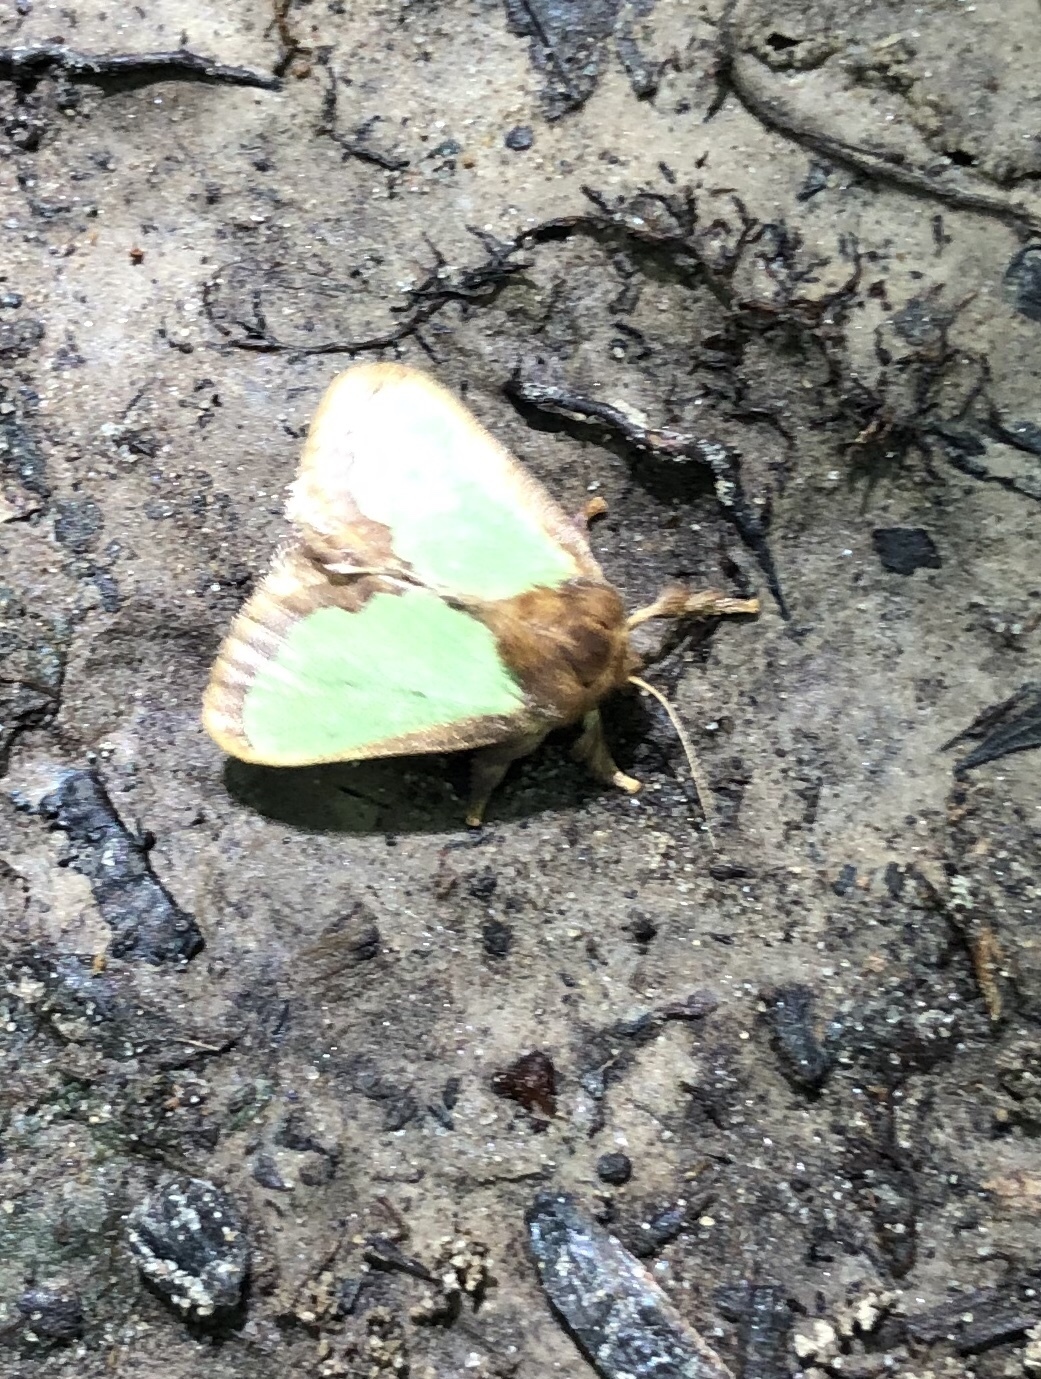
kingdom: Animalia
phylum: Arthropoda
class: Insecta
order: Lepidoptera
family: Limacodidae
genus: Euclea
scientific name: Euclea incisa
